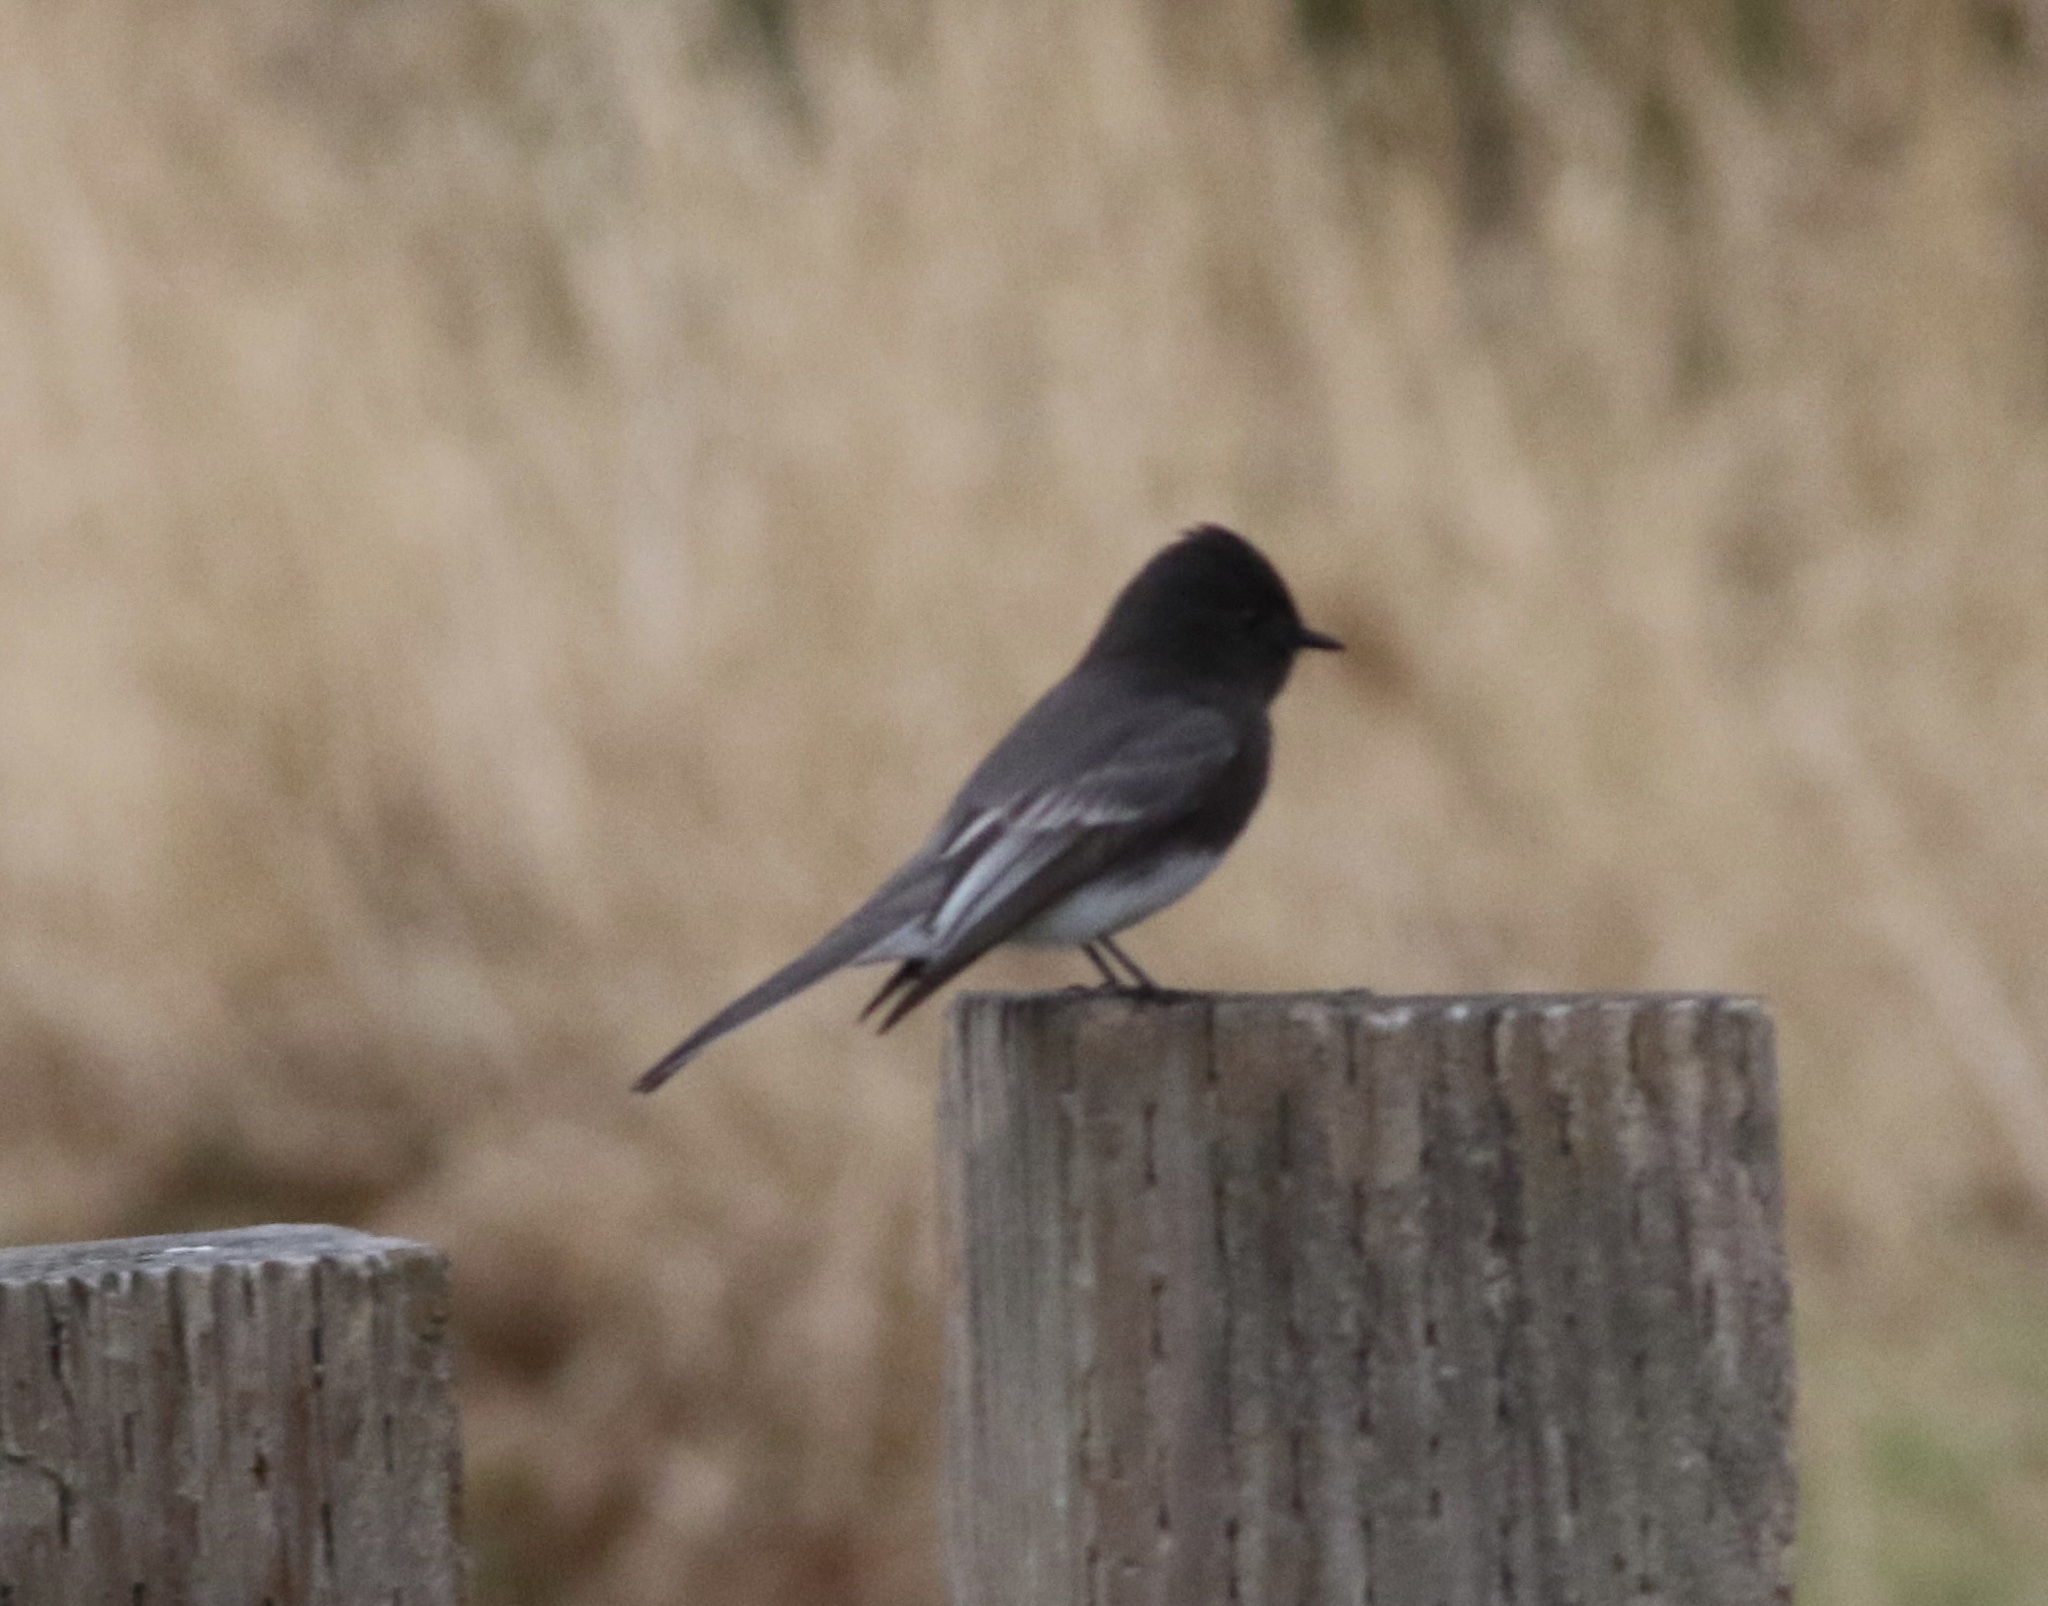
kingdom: Animalia
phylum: Chordata
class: Aves
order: Passeriformes
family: Tyrannidae
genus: Sayornis
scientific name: Sayornis nigricans
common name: Black phoebe
